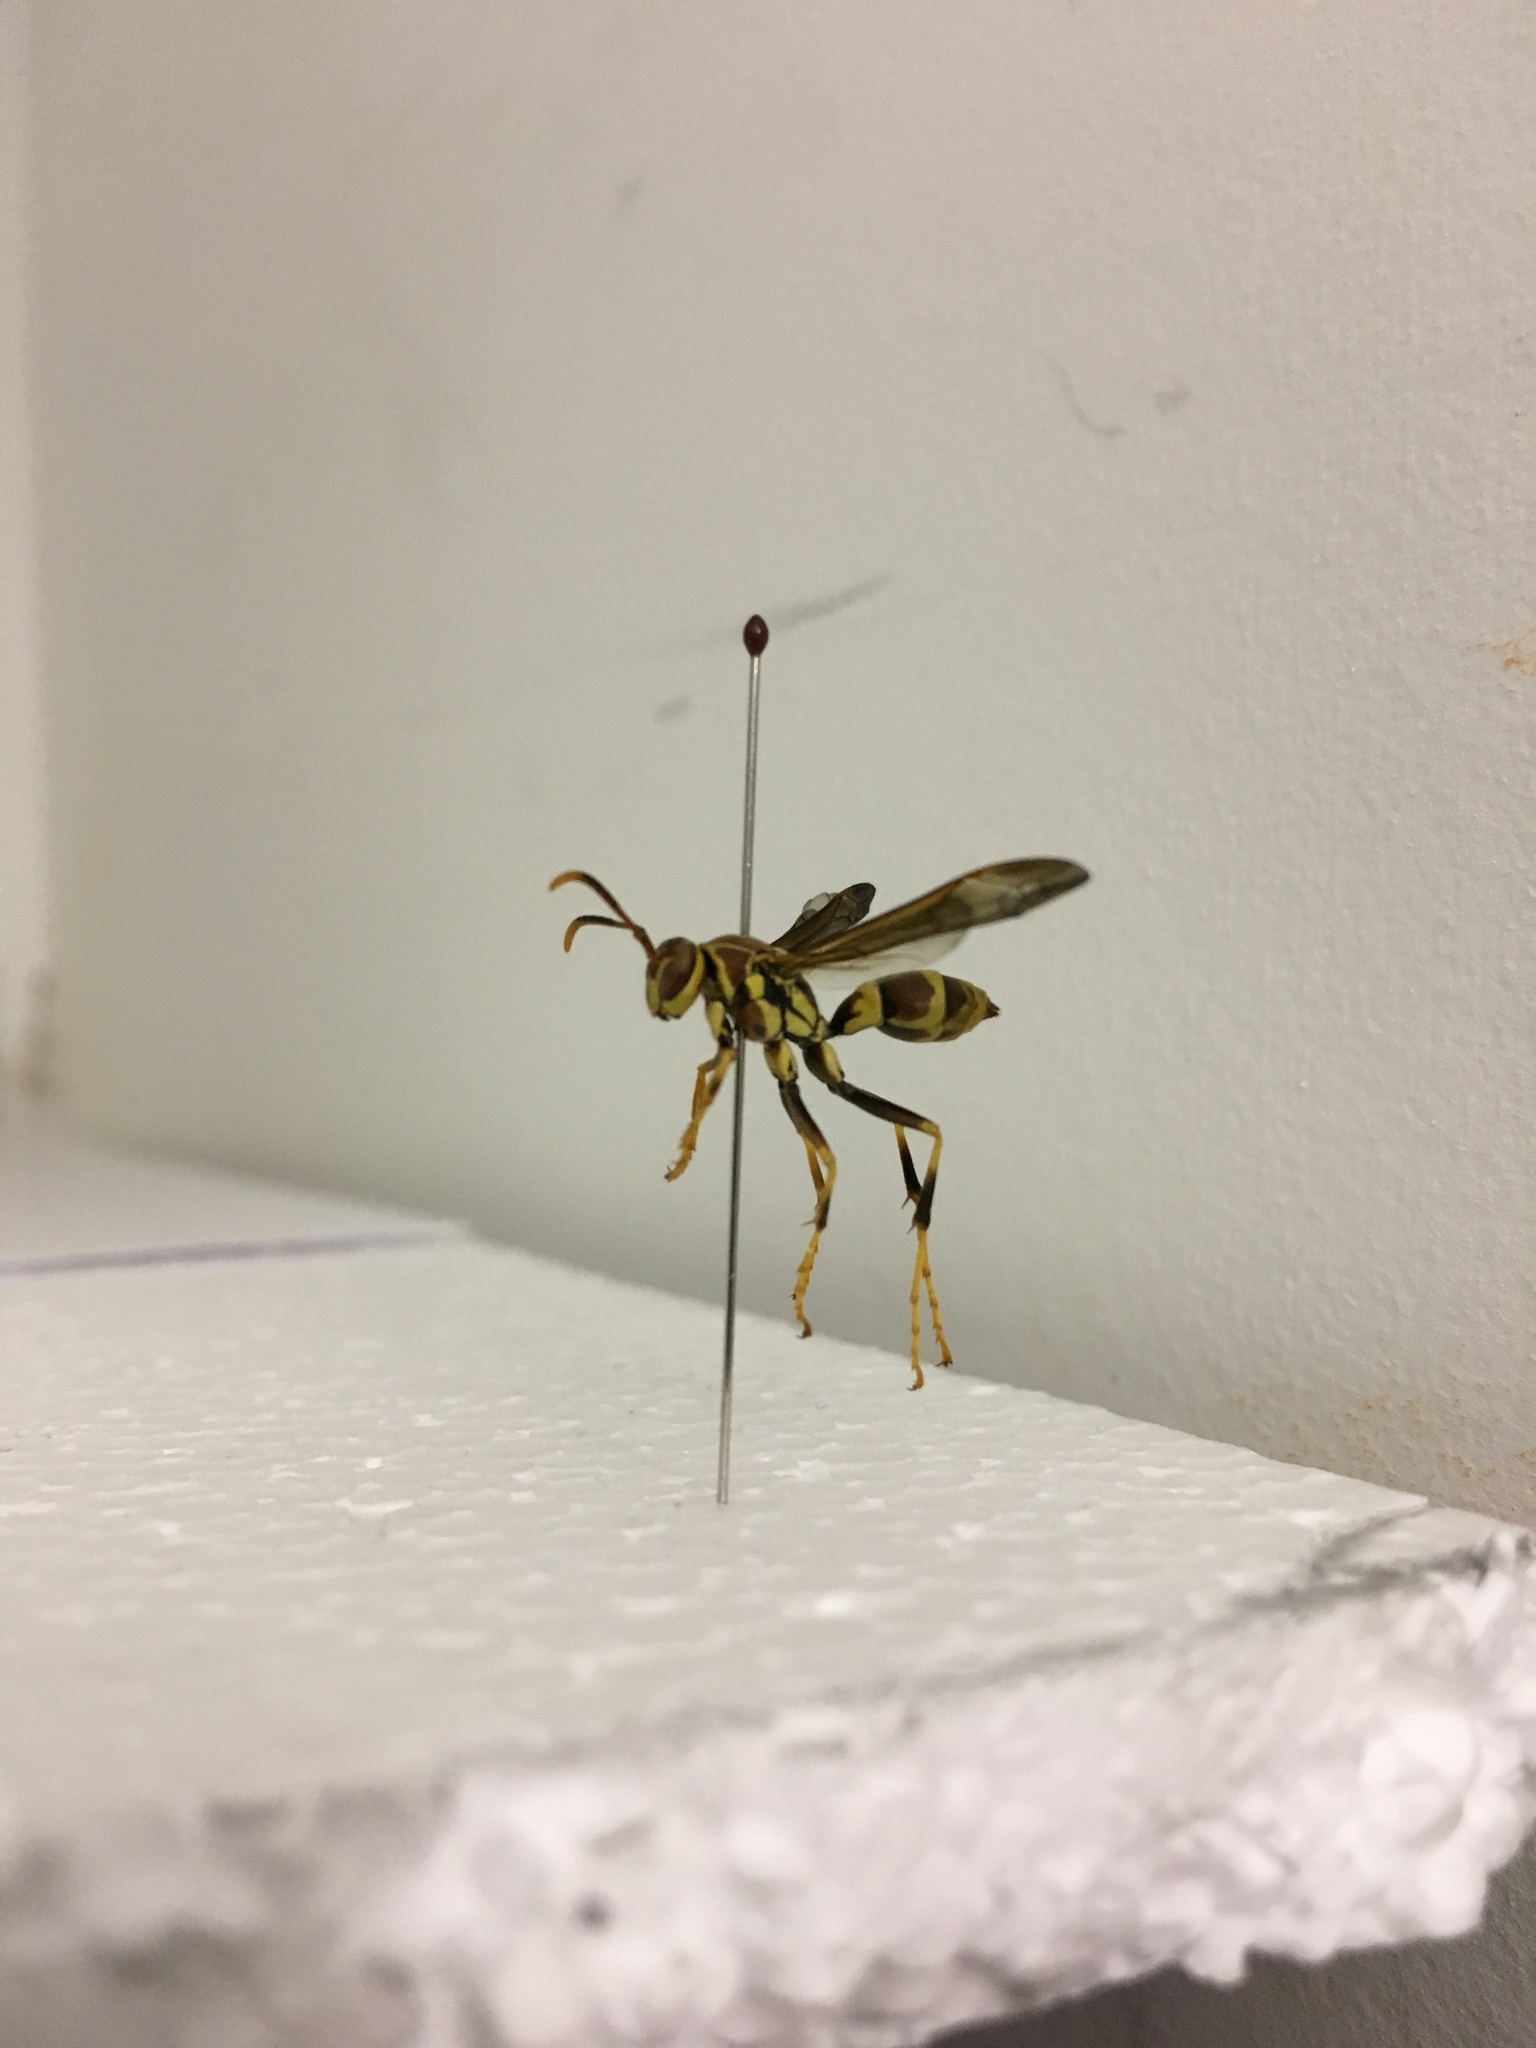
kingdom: Animalia
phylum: Arthropoda
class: Insecta
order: Hymenoptera
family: Eumenidae
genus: Polistes
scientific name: Polistes exclamans
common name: Paper wasp
